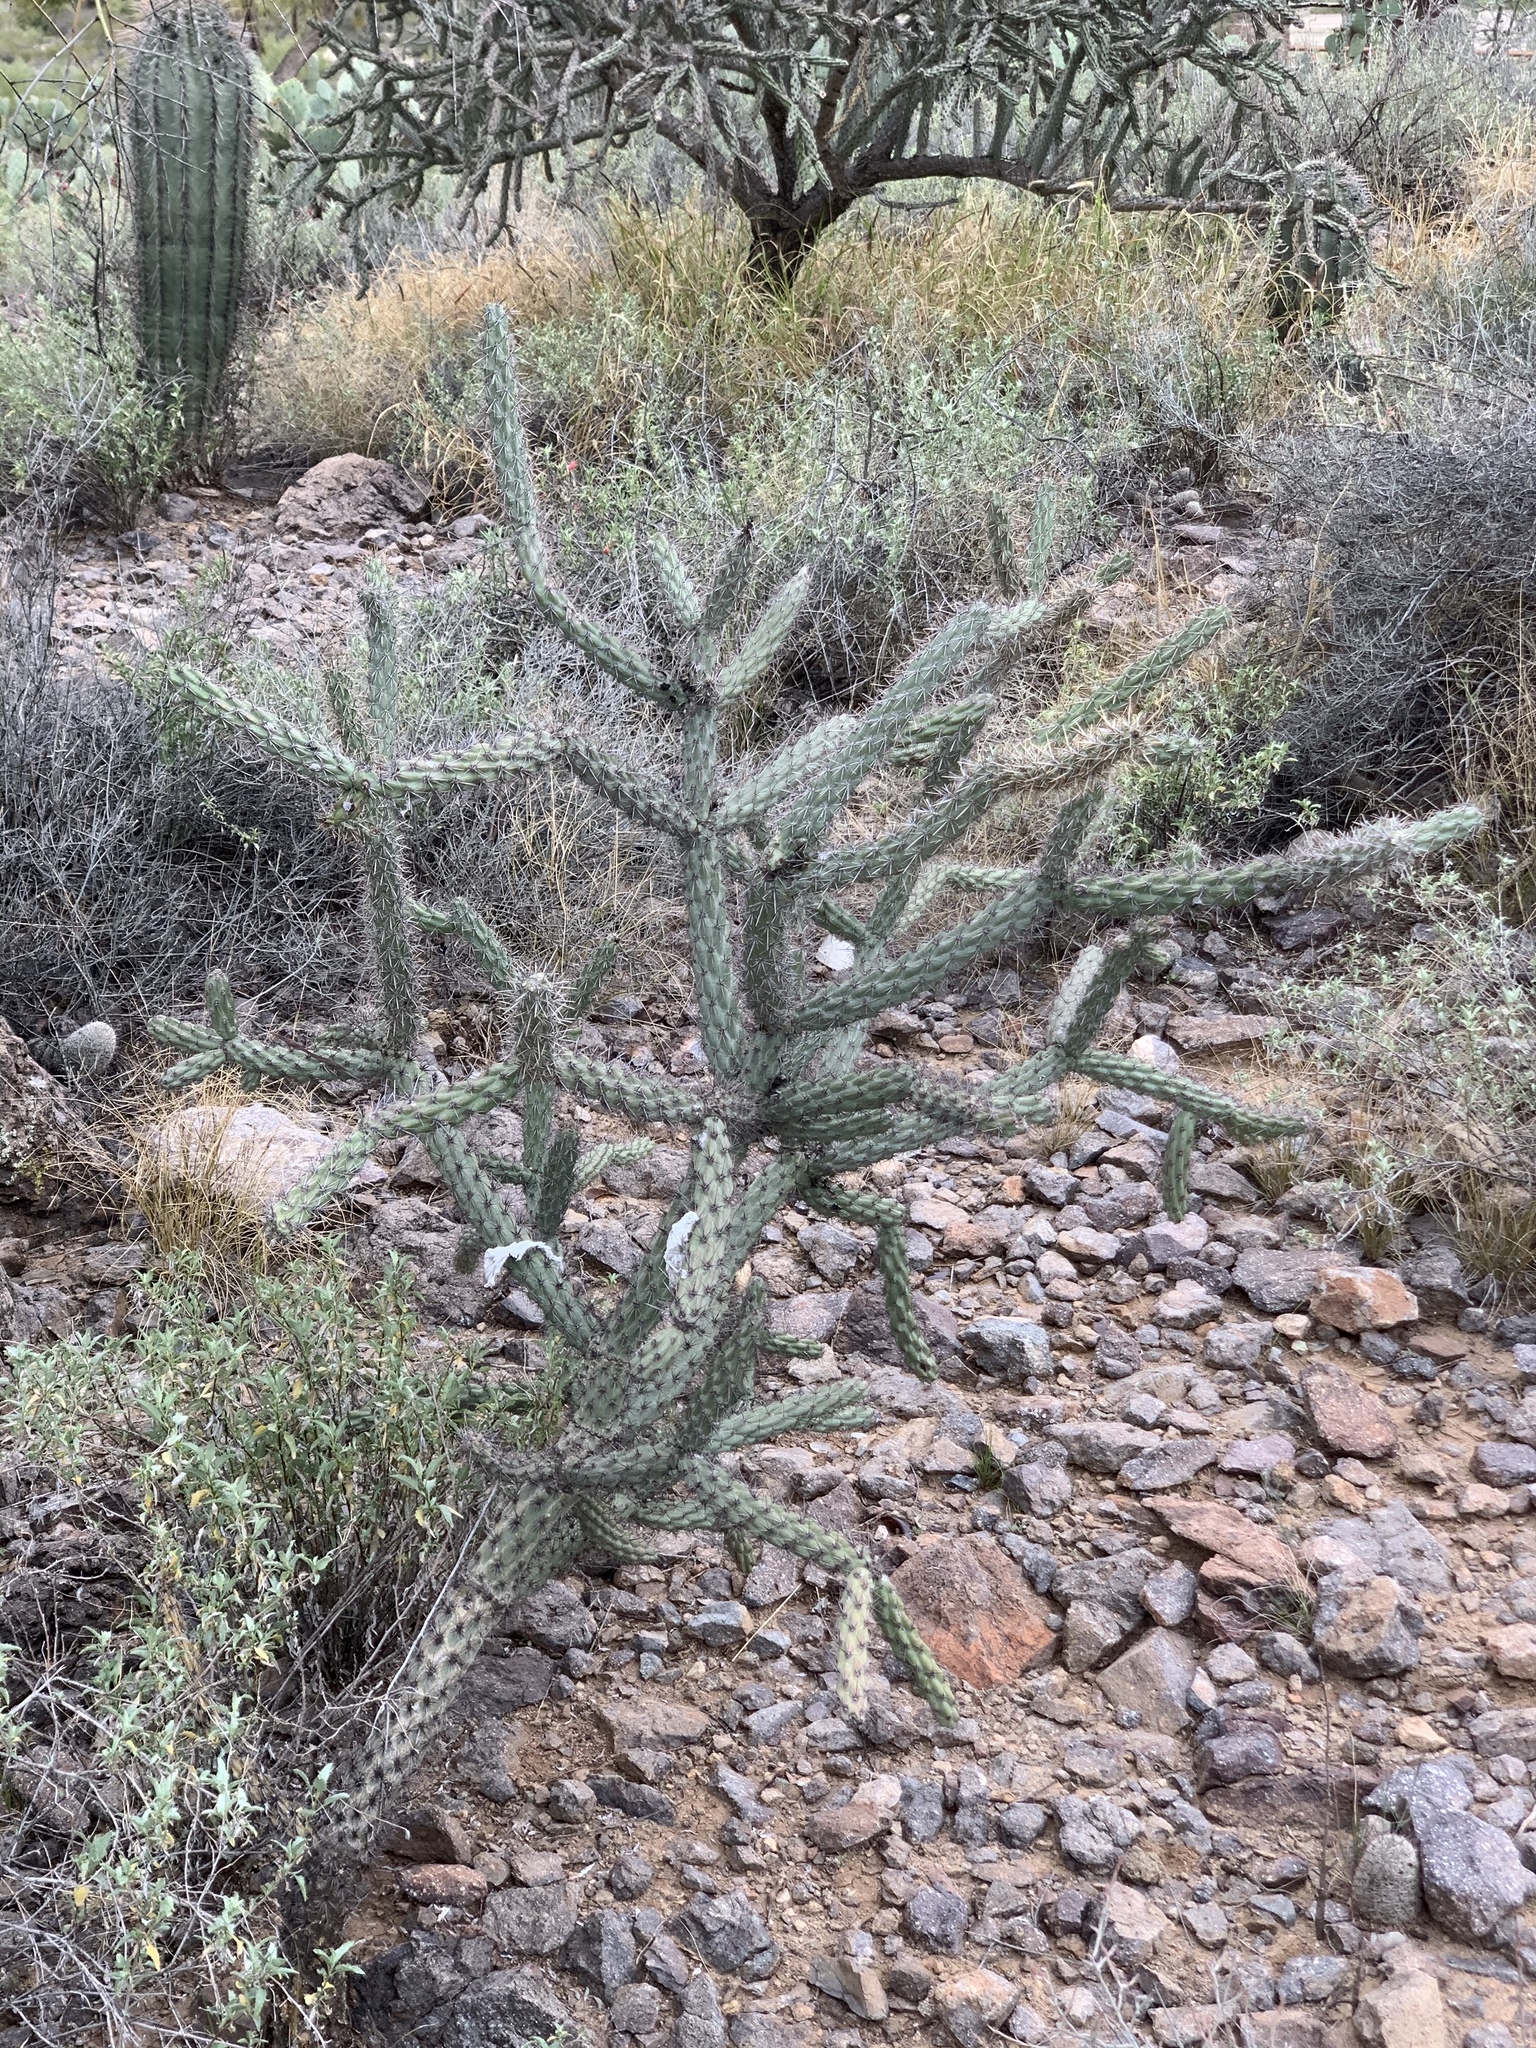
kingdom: Plantae
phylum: Tracheophyta
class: Magnoliopsida
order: Caryophyllales
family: Cactaceae
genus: Cylindropuntia
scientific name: Cylindropuntia acanthocarpa
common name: Buckhorn cholla
